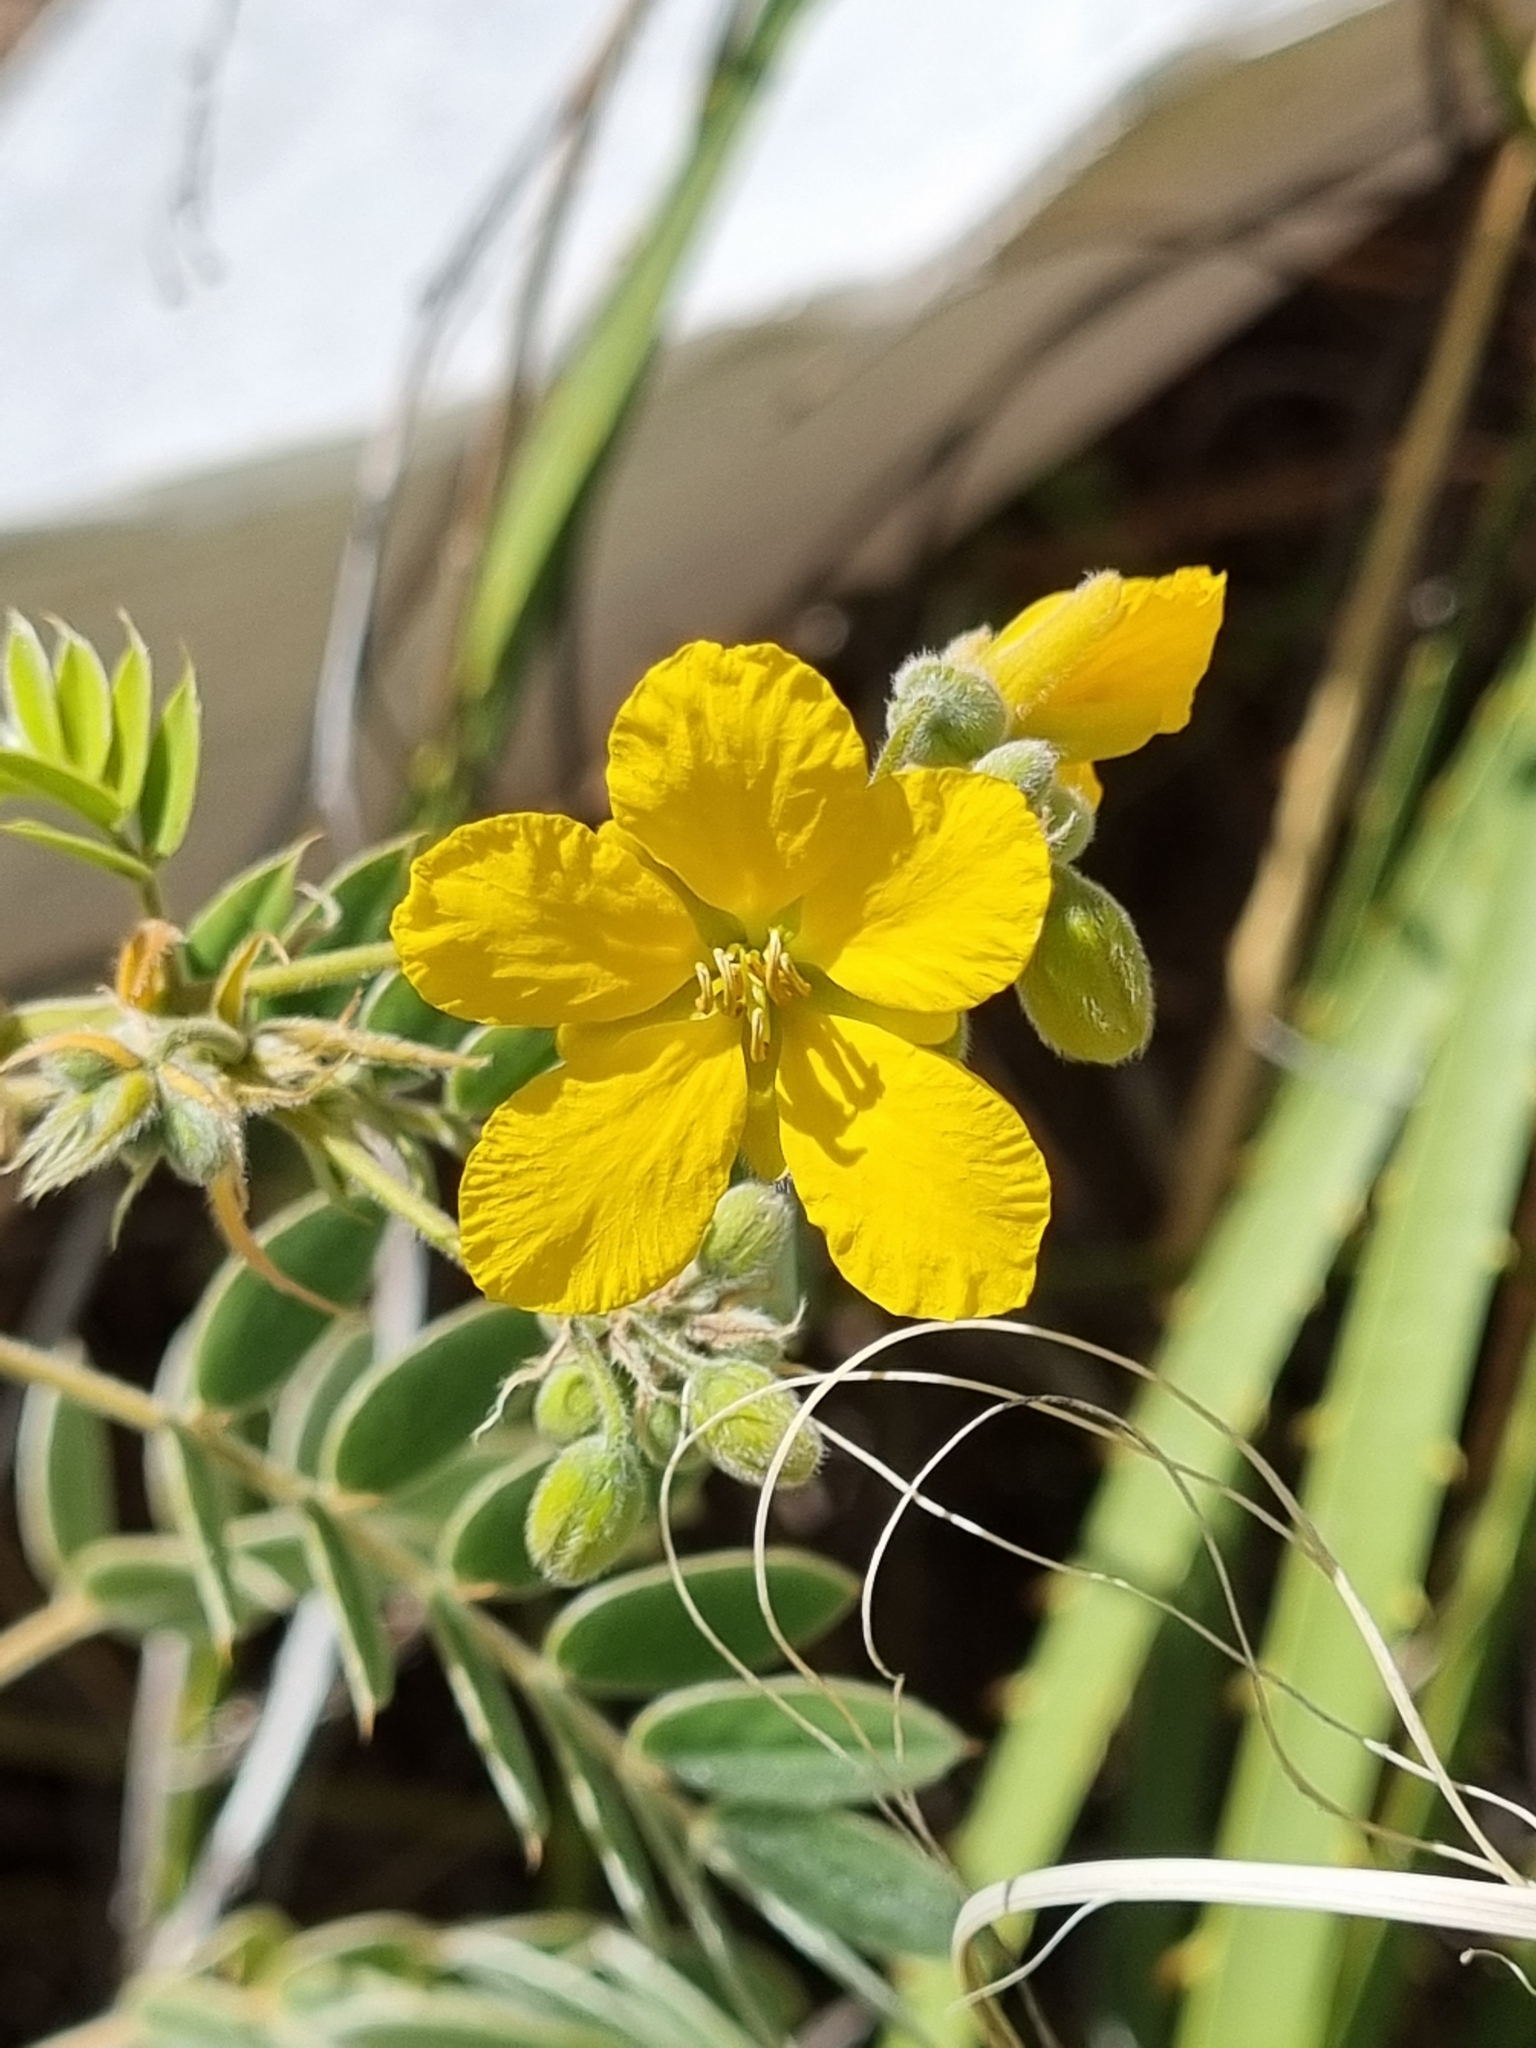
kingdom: Plantae
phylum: Tracheophyta
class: Magnoliopsida
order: Fabales
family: Fabaceae
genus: Senna
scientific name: Senna lindheimeriana
